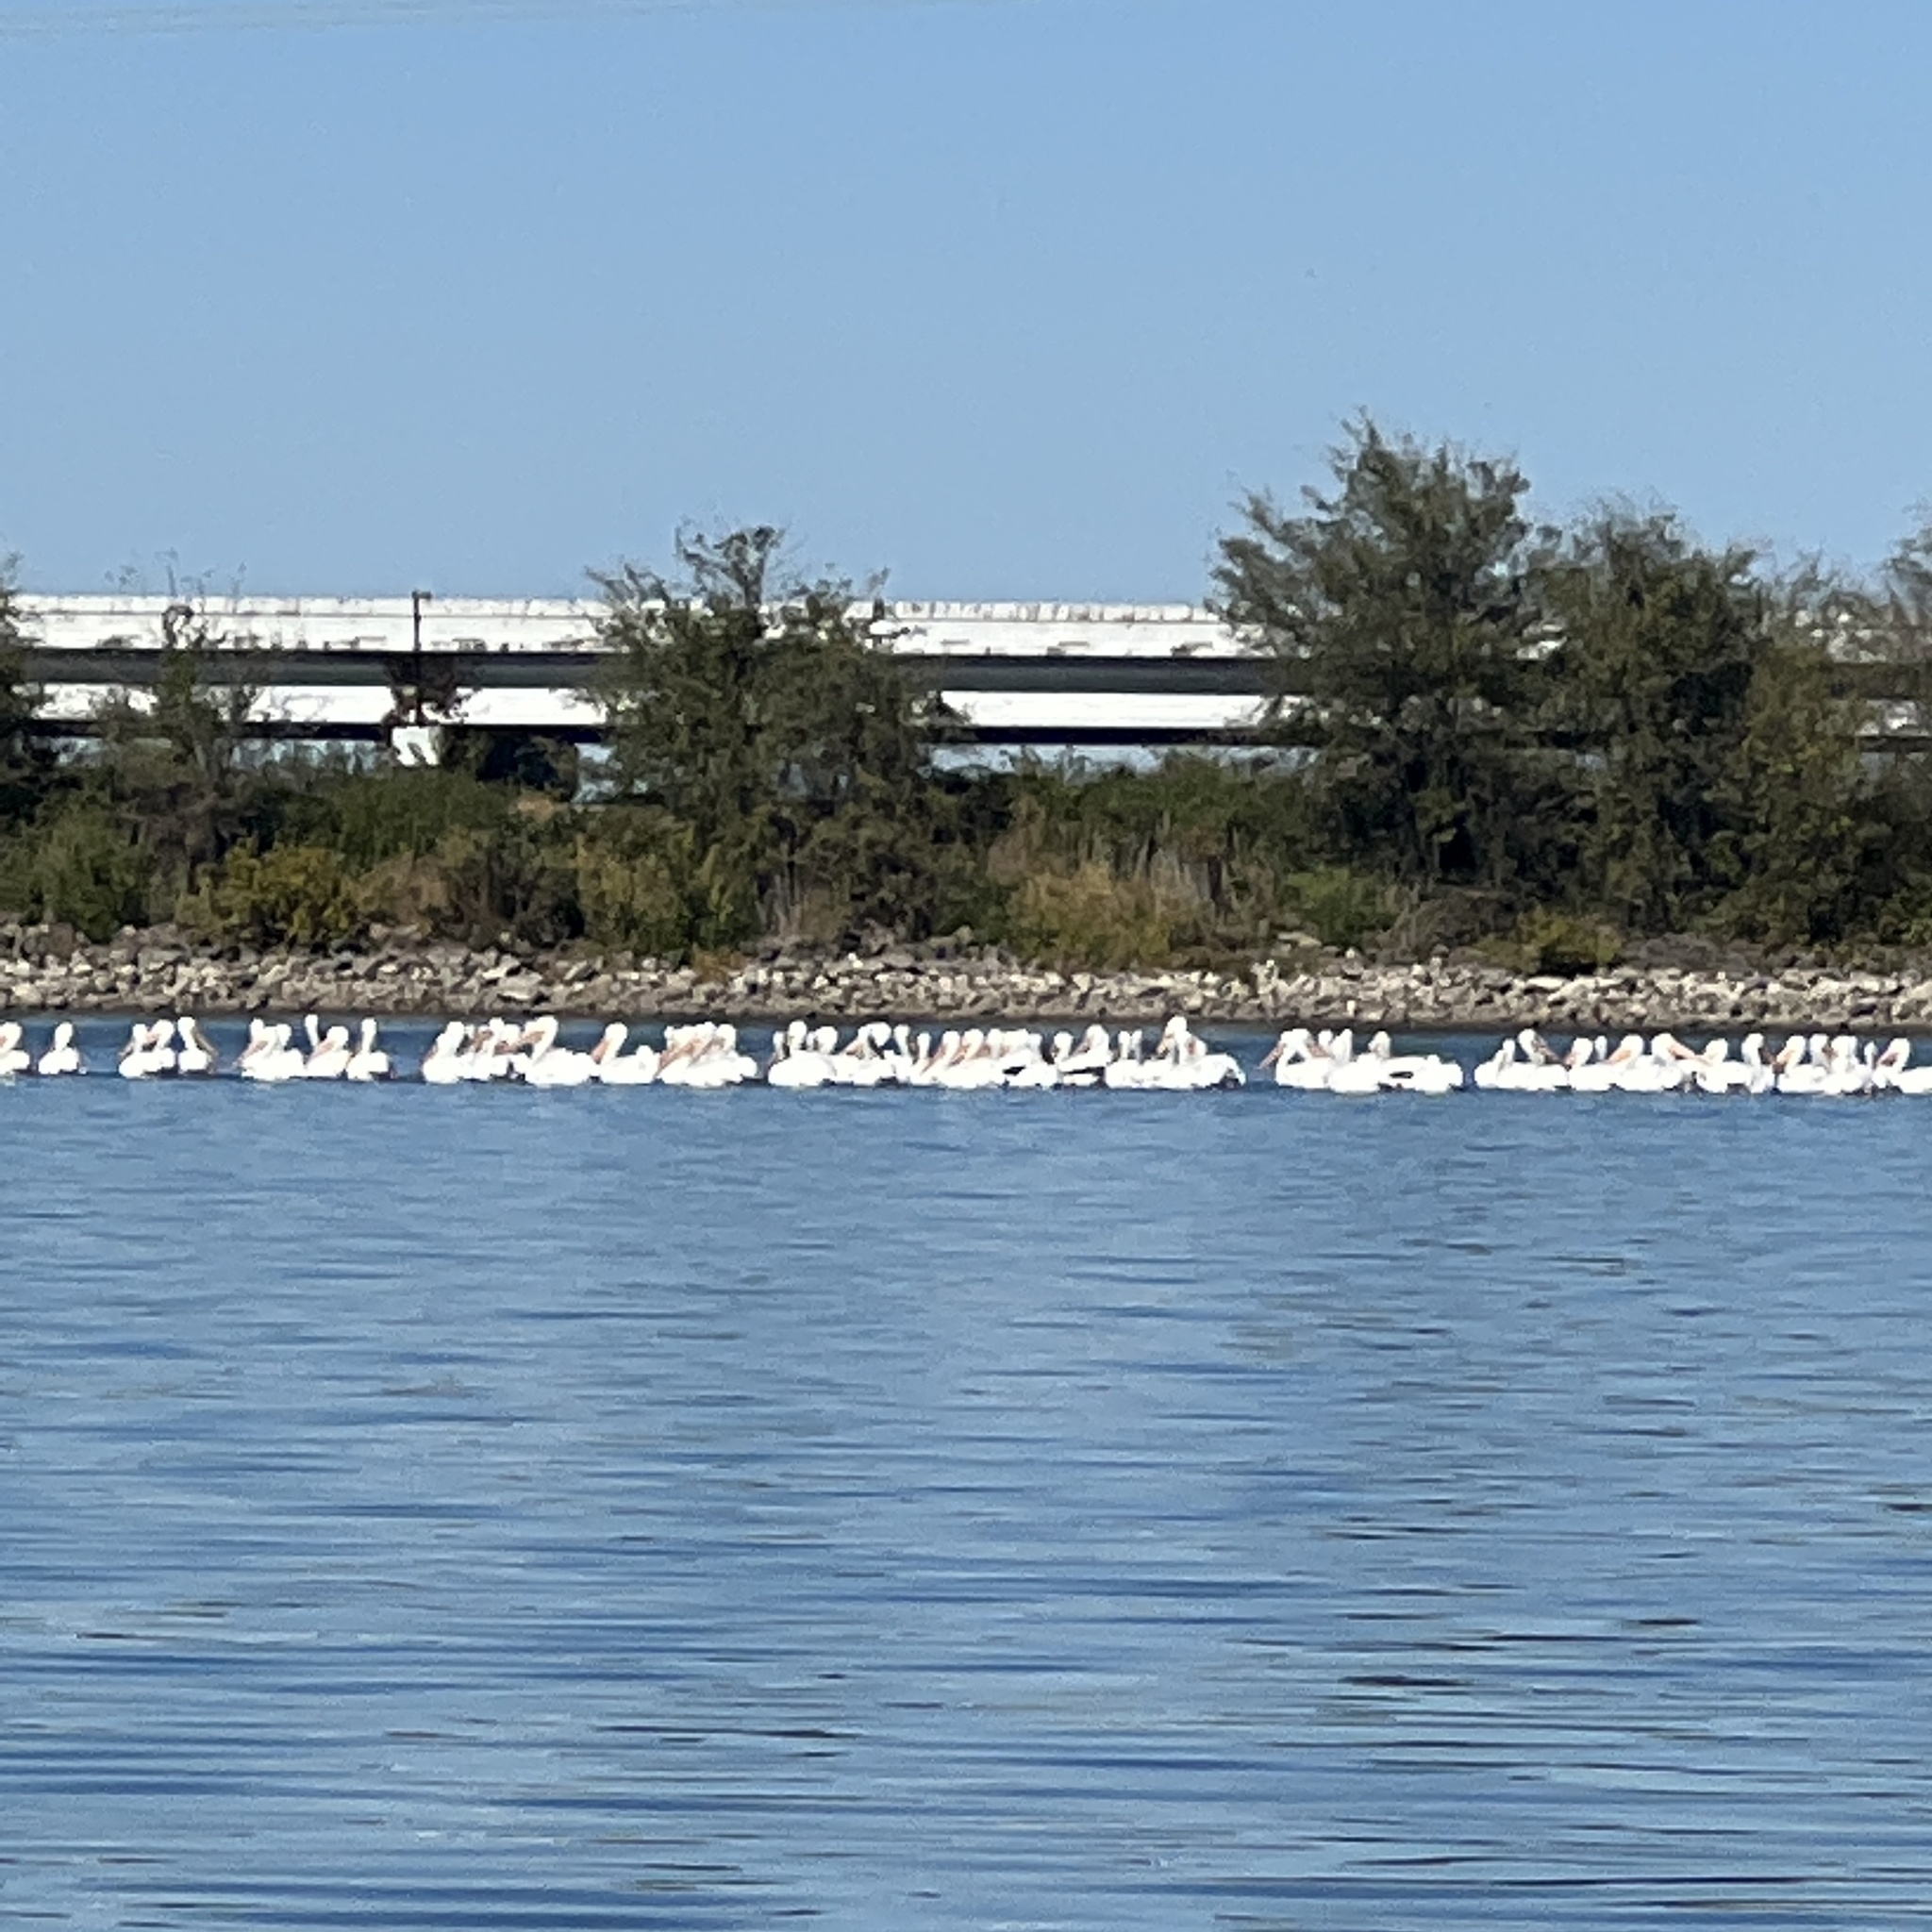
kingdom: Animalia
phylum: Chordata
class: Aves
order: Pelecaniformes
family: Pelecanidae
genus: Pelecanus
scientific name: Pelecanus erythrorhynchos
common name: American white pelican
